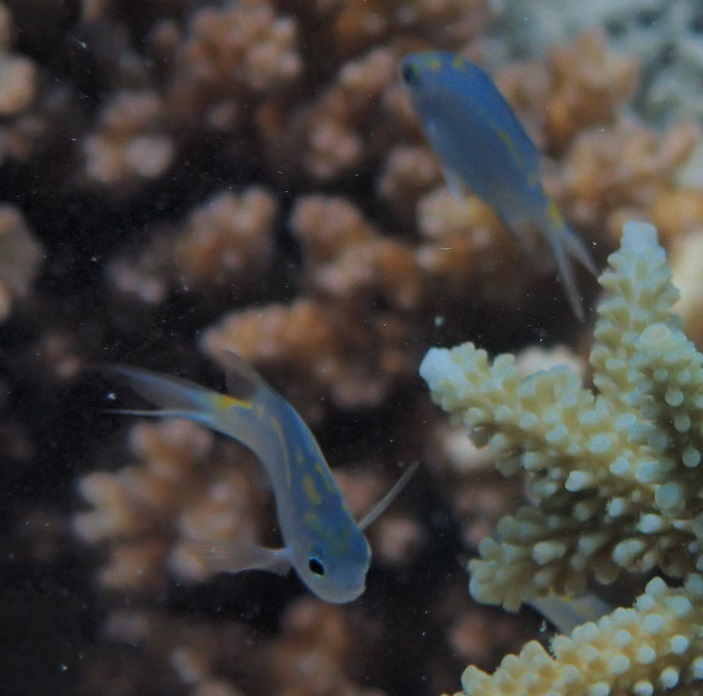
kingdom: Animalia
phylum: Chordata
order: Perciformes
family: Pomacentridae
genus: Acanthochromis
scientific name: Acanthochromis polyacanthus
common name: Spiny chromis
